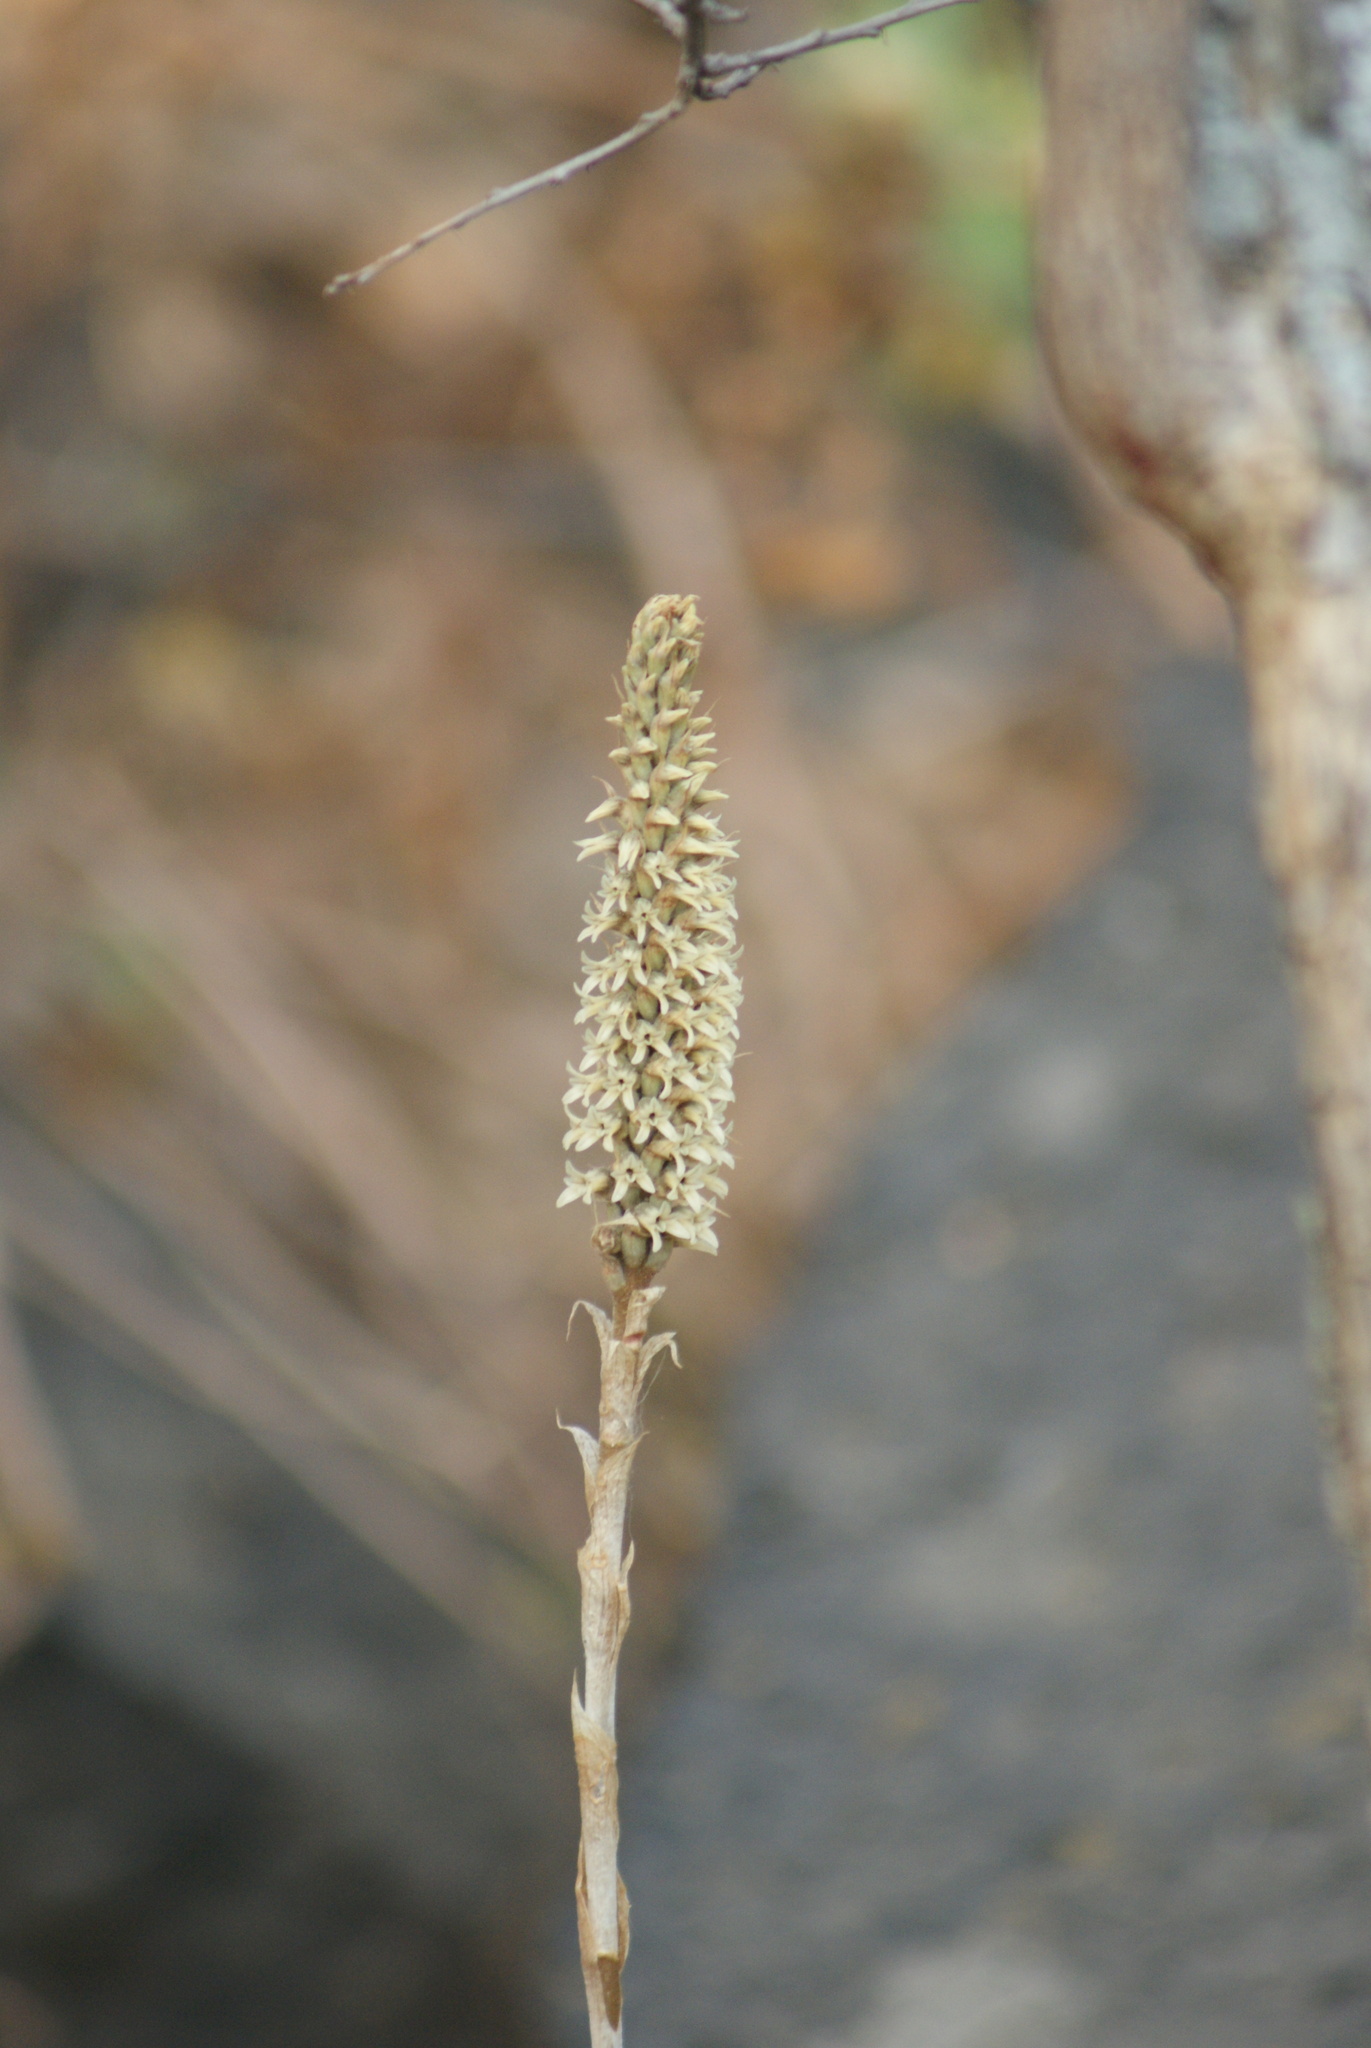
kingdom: Plantae
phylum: Tracheophyta
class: Liliopsida
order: Asparagales
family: Orchidaceae
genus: Aulosepalum
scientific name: Aulosepalum pyramidale
